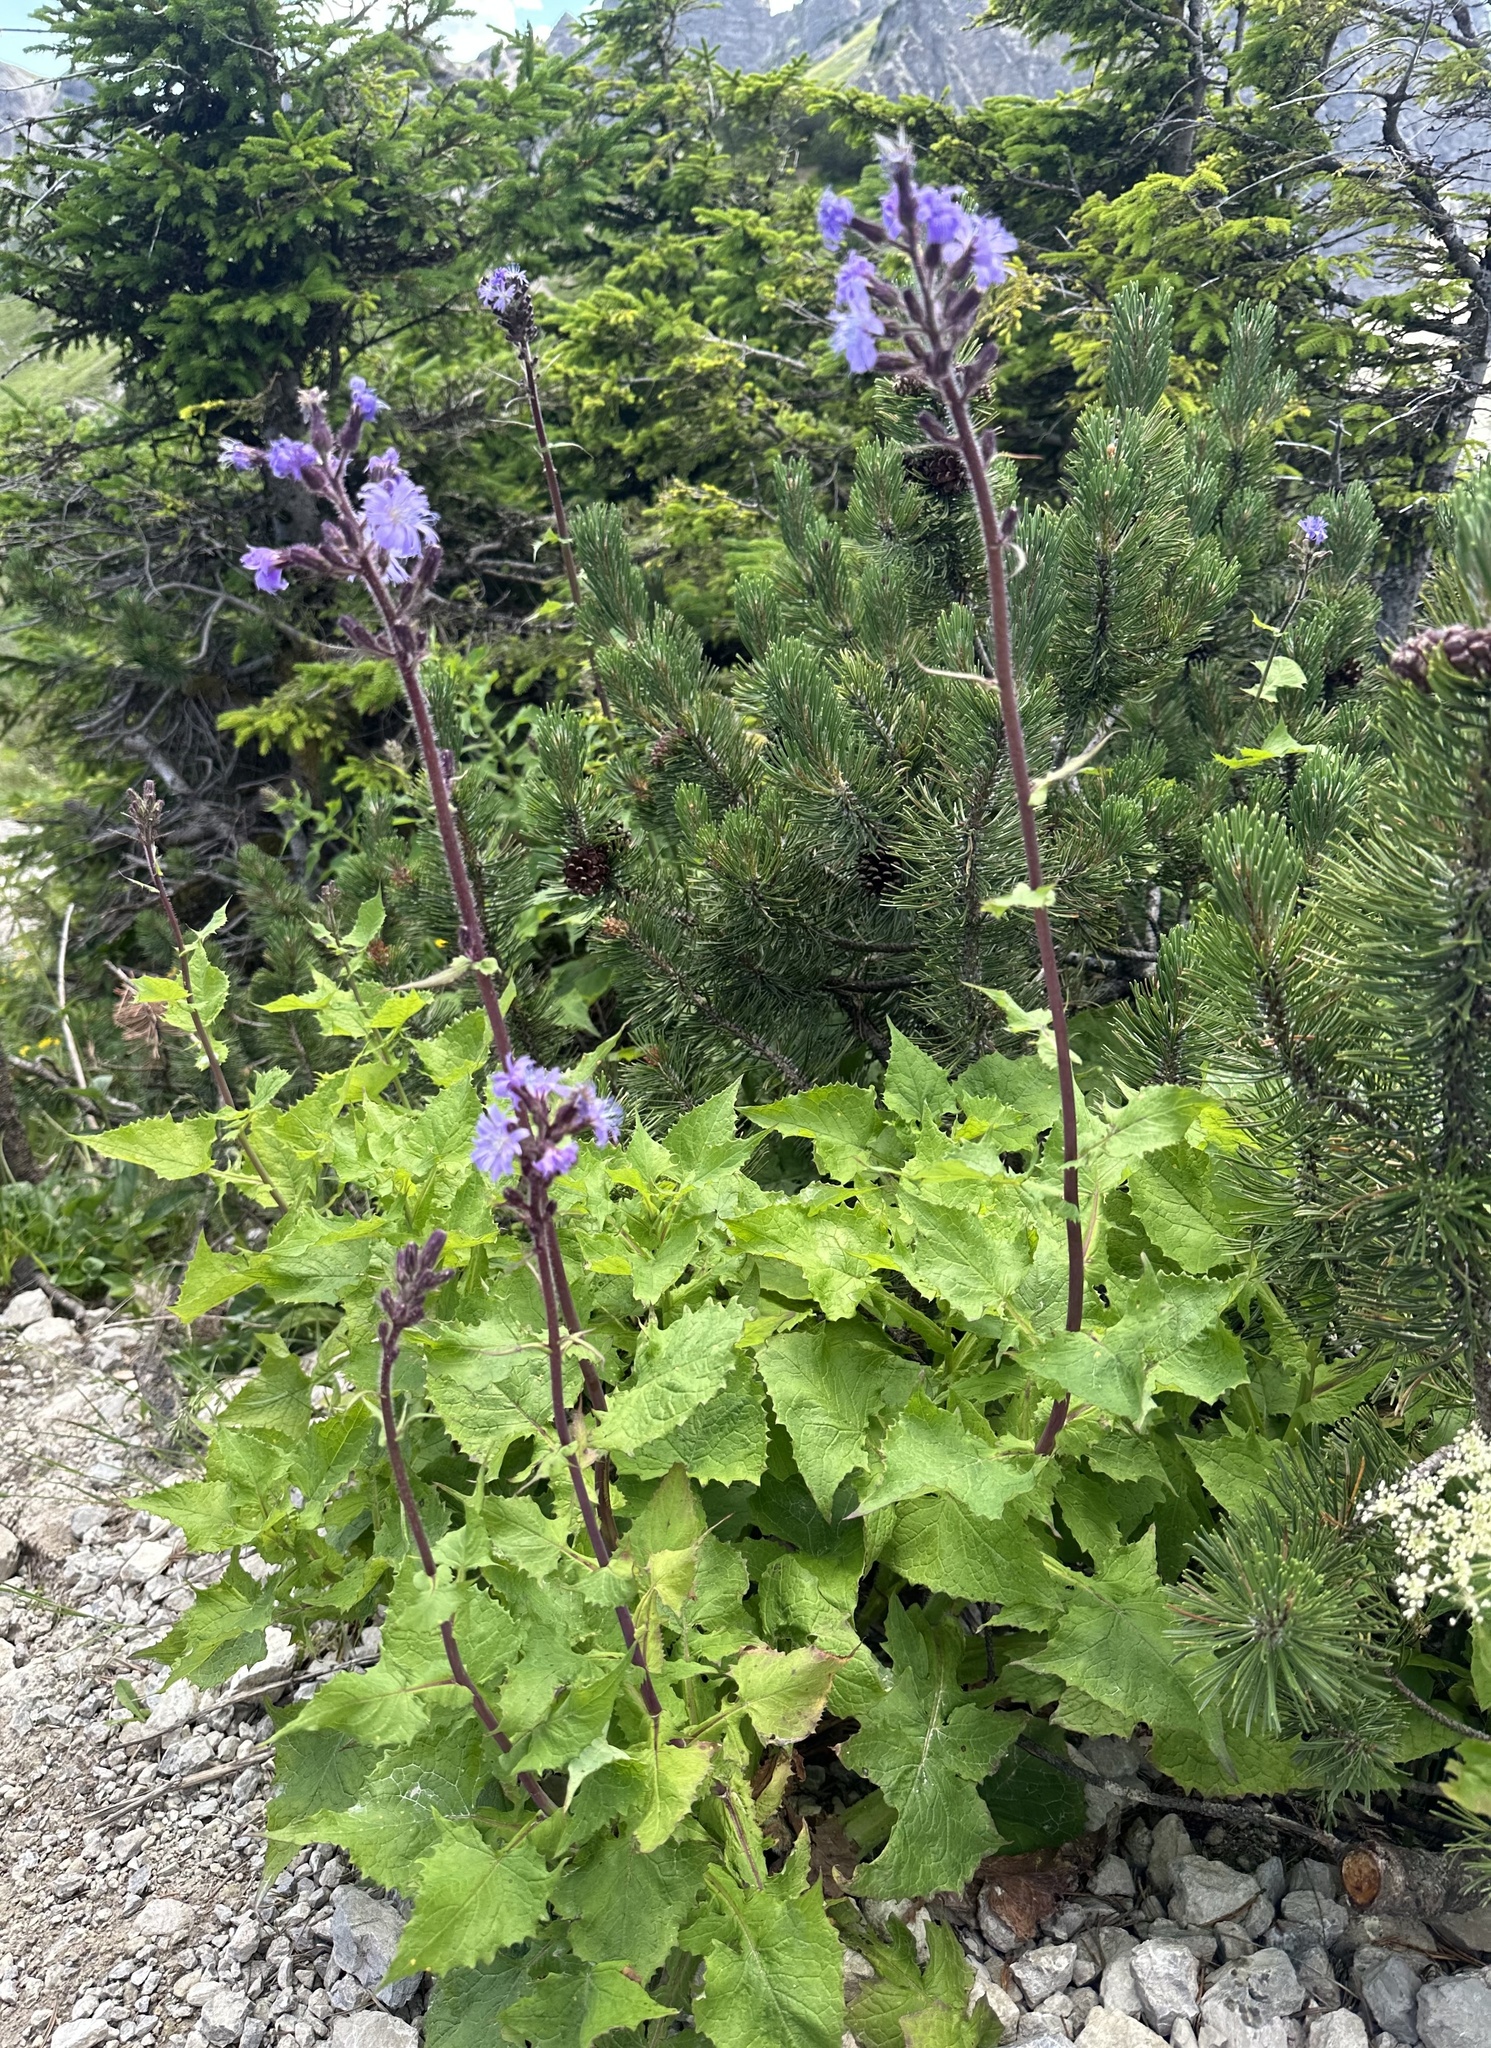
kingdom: Plantae
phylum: Tracheophyta
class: Magnoliopsida
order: Asterales
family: Asteraceae
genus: Cicerbita
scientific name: Cicerbita alpina
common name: Alpine blue-sow-thistle
